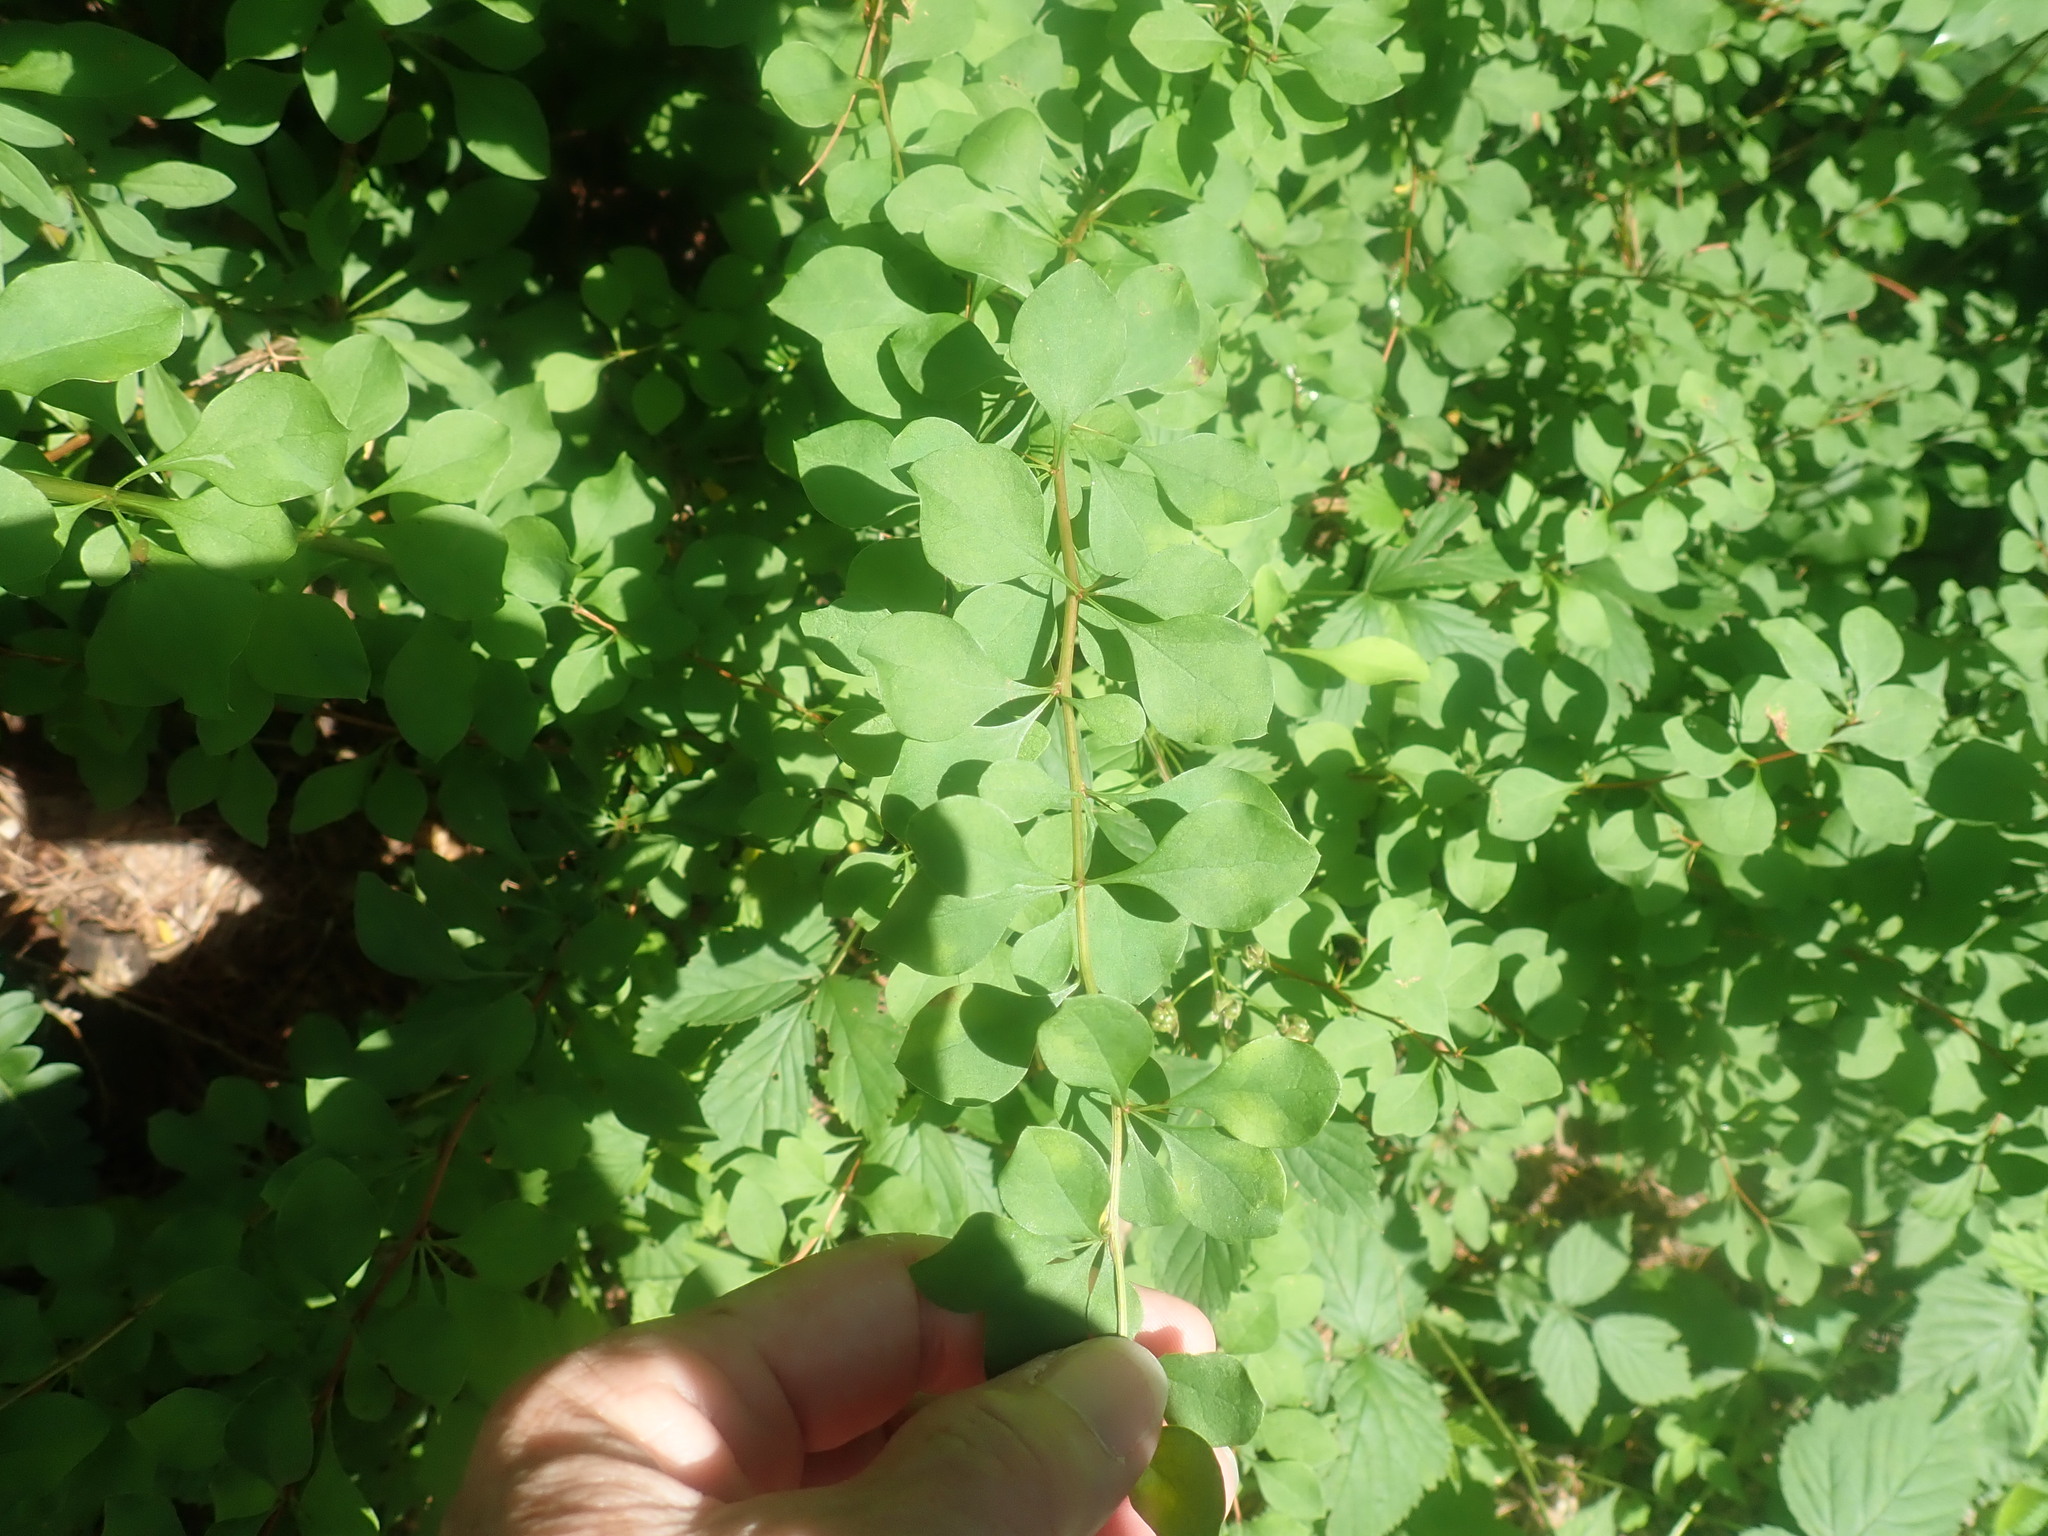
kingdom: Plantae
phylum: Tracheophyta
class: Magnoliopsida
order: Ranunculales
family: Berberidaceae
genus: Berberis
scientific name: Berberis thunbergii
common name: Japanese barberry
